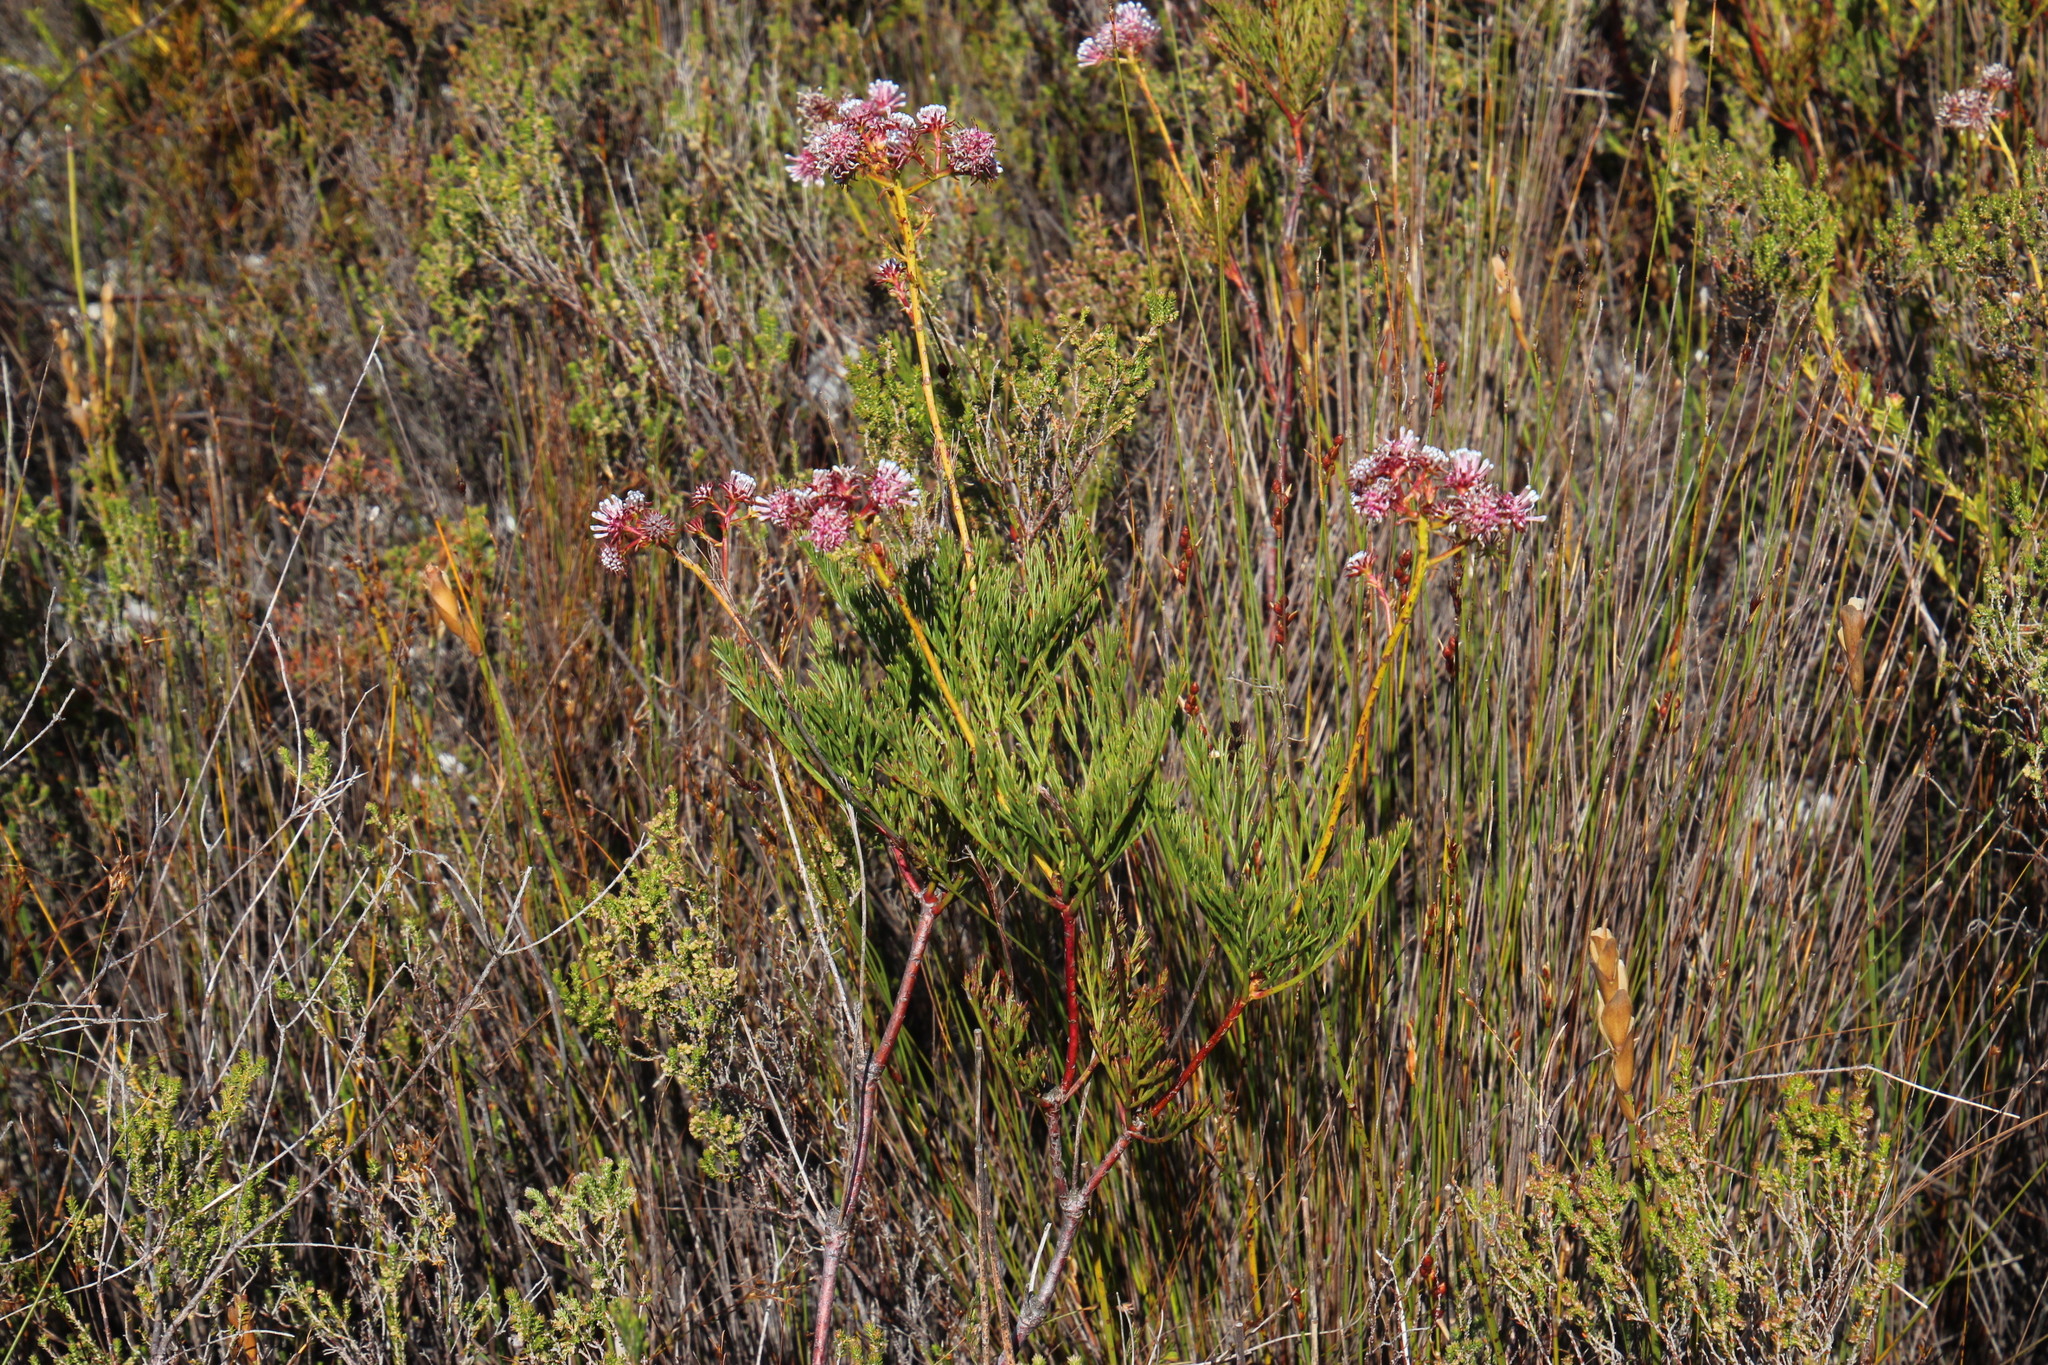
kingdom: Plantae
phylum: Tracheophyta
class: Magnoliopsida
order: Proteales
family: Proteaceae
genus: Serruria
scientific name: Serruria elongata
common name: Long-stalk spiderhead
